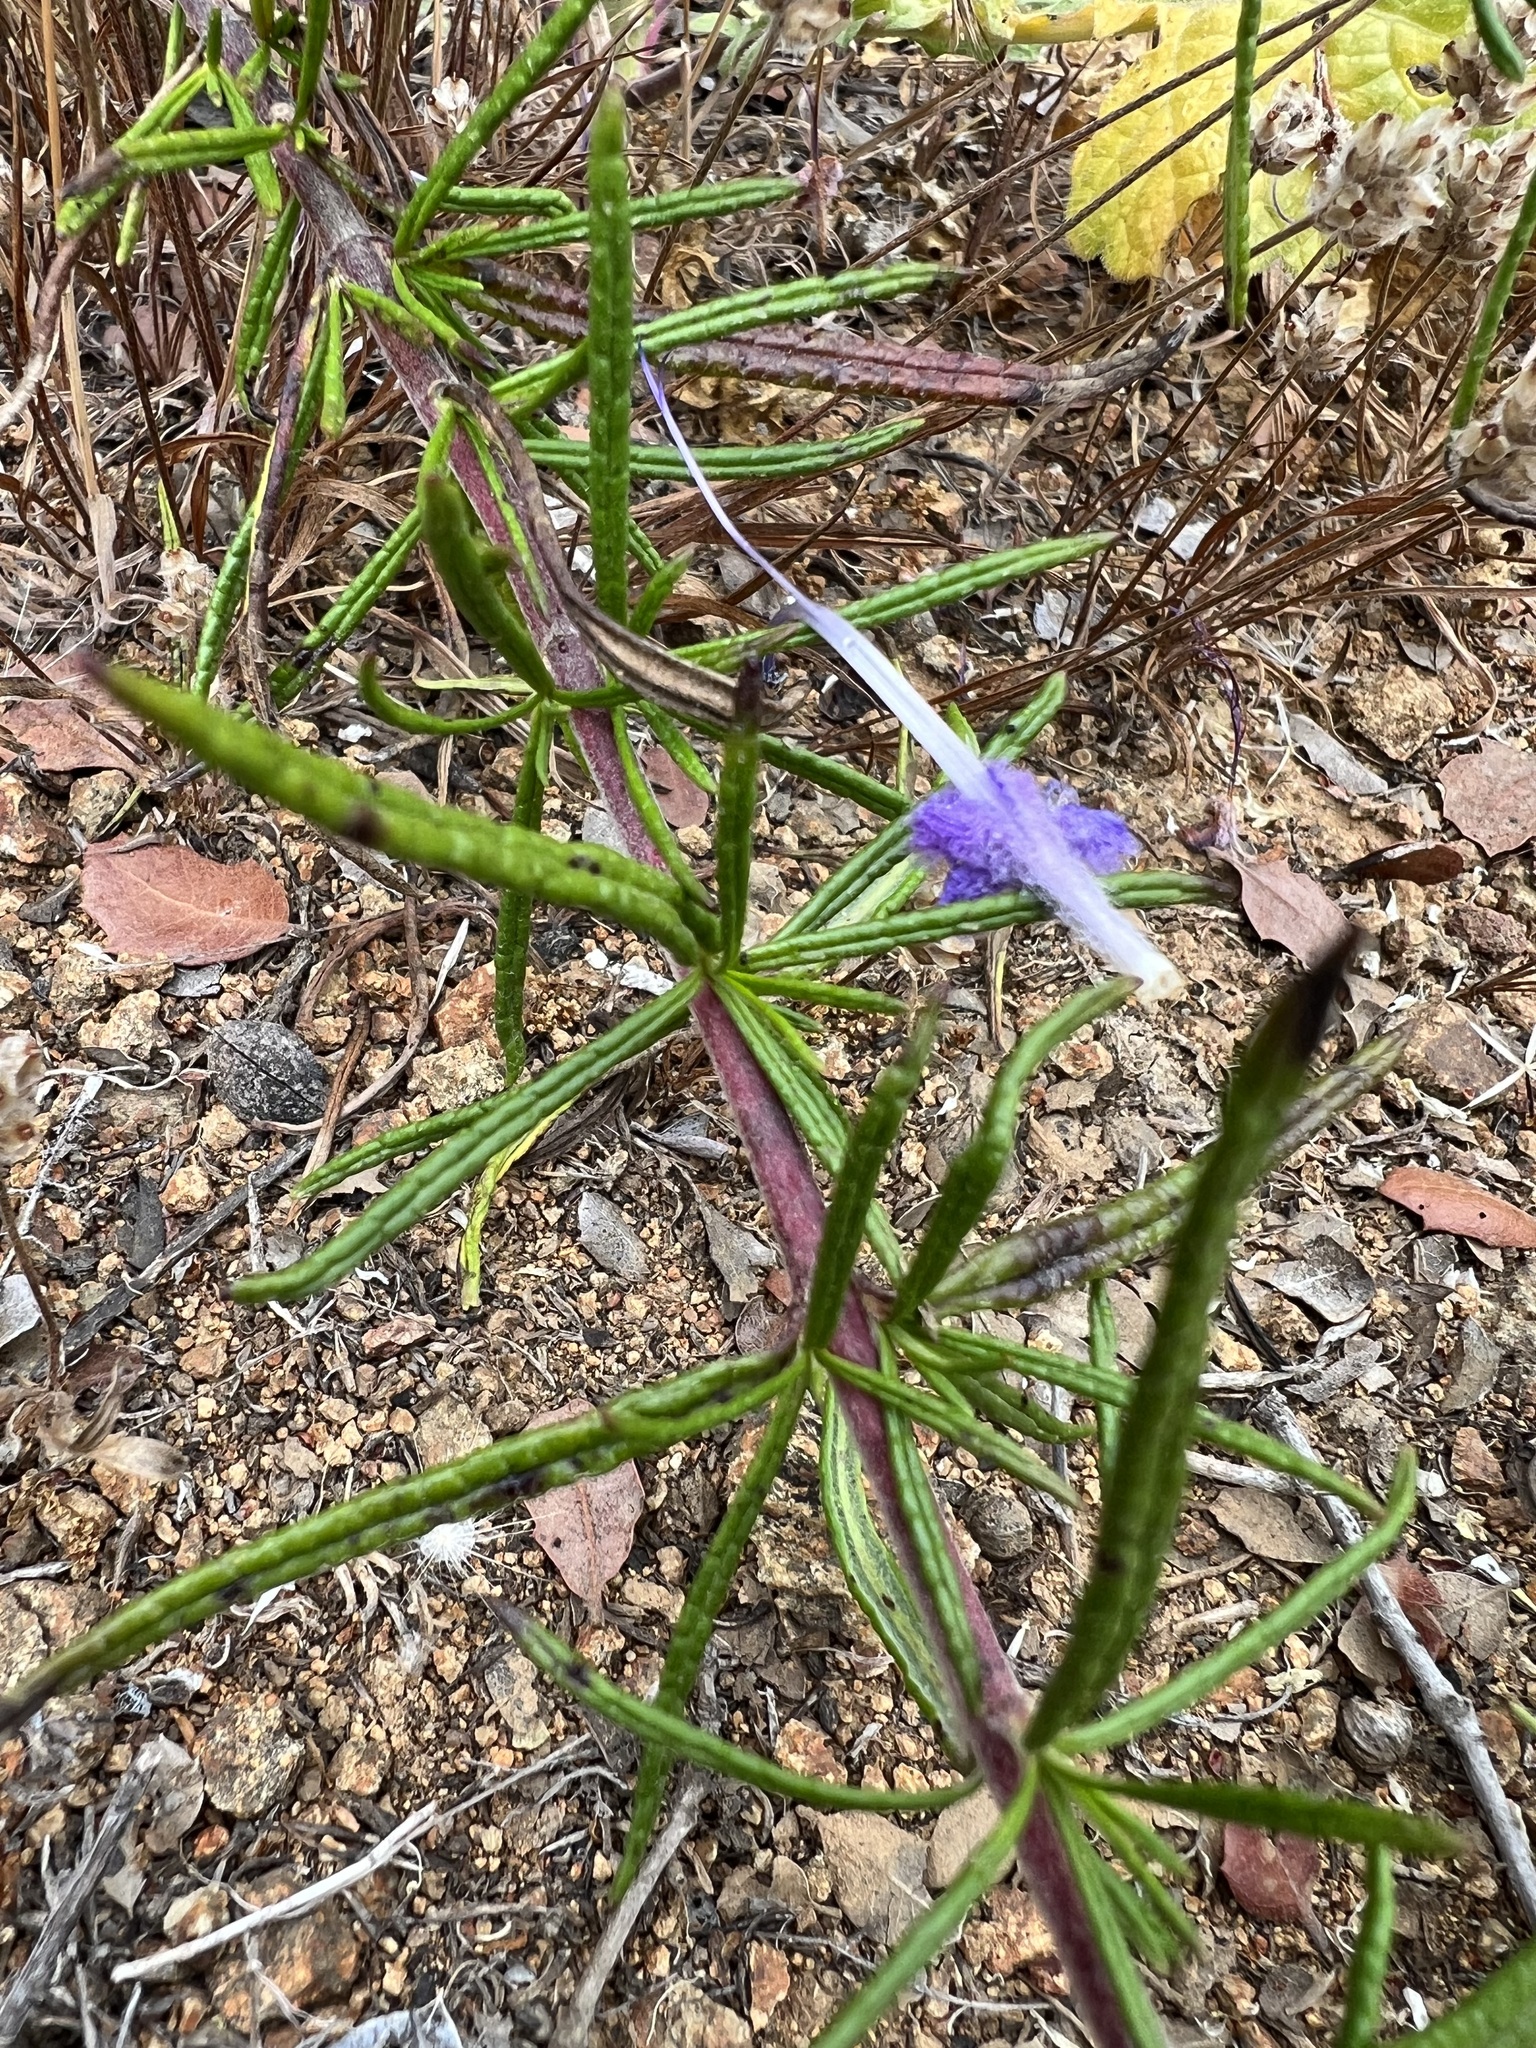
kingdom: Plantae
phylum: Tracheophyta
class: Magnoliopsida
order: Lamiales
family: Lamiaceae
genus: Trichostema
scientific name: Trichostema lanatum
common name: Woolly bluecurls
